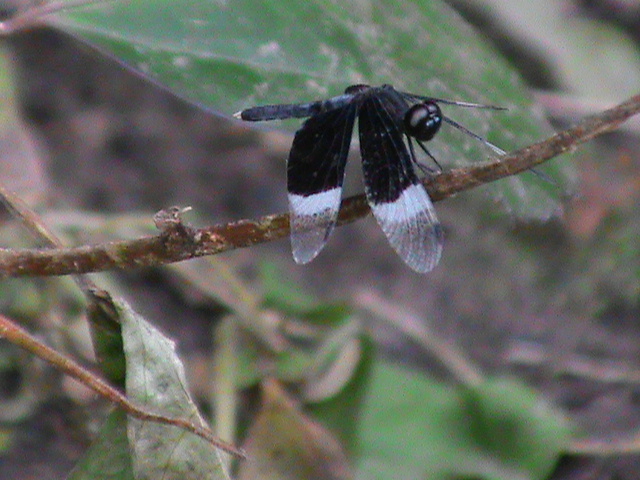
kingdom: Animalia
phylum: Arthropoda
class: Insecta
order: Odonata
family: Libellulidae
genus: Neurothemis
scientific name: Neurothemis tullia
